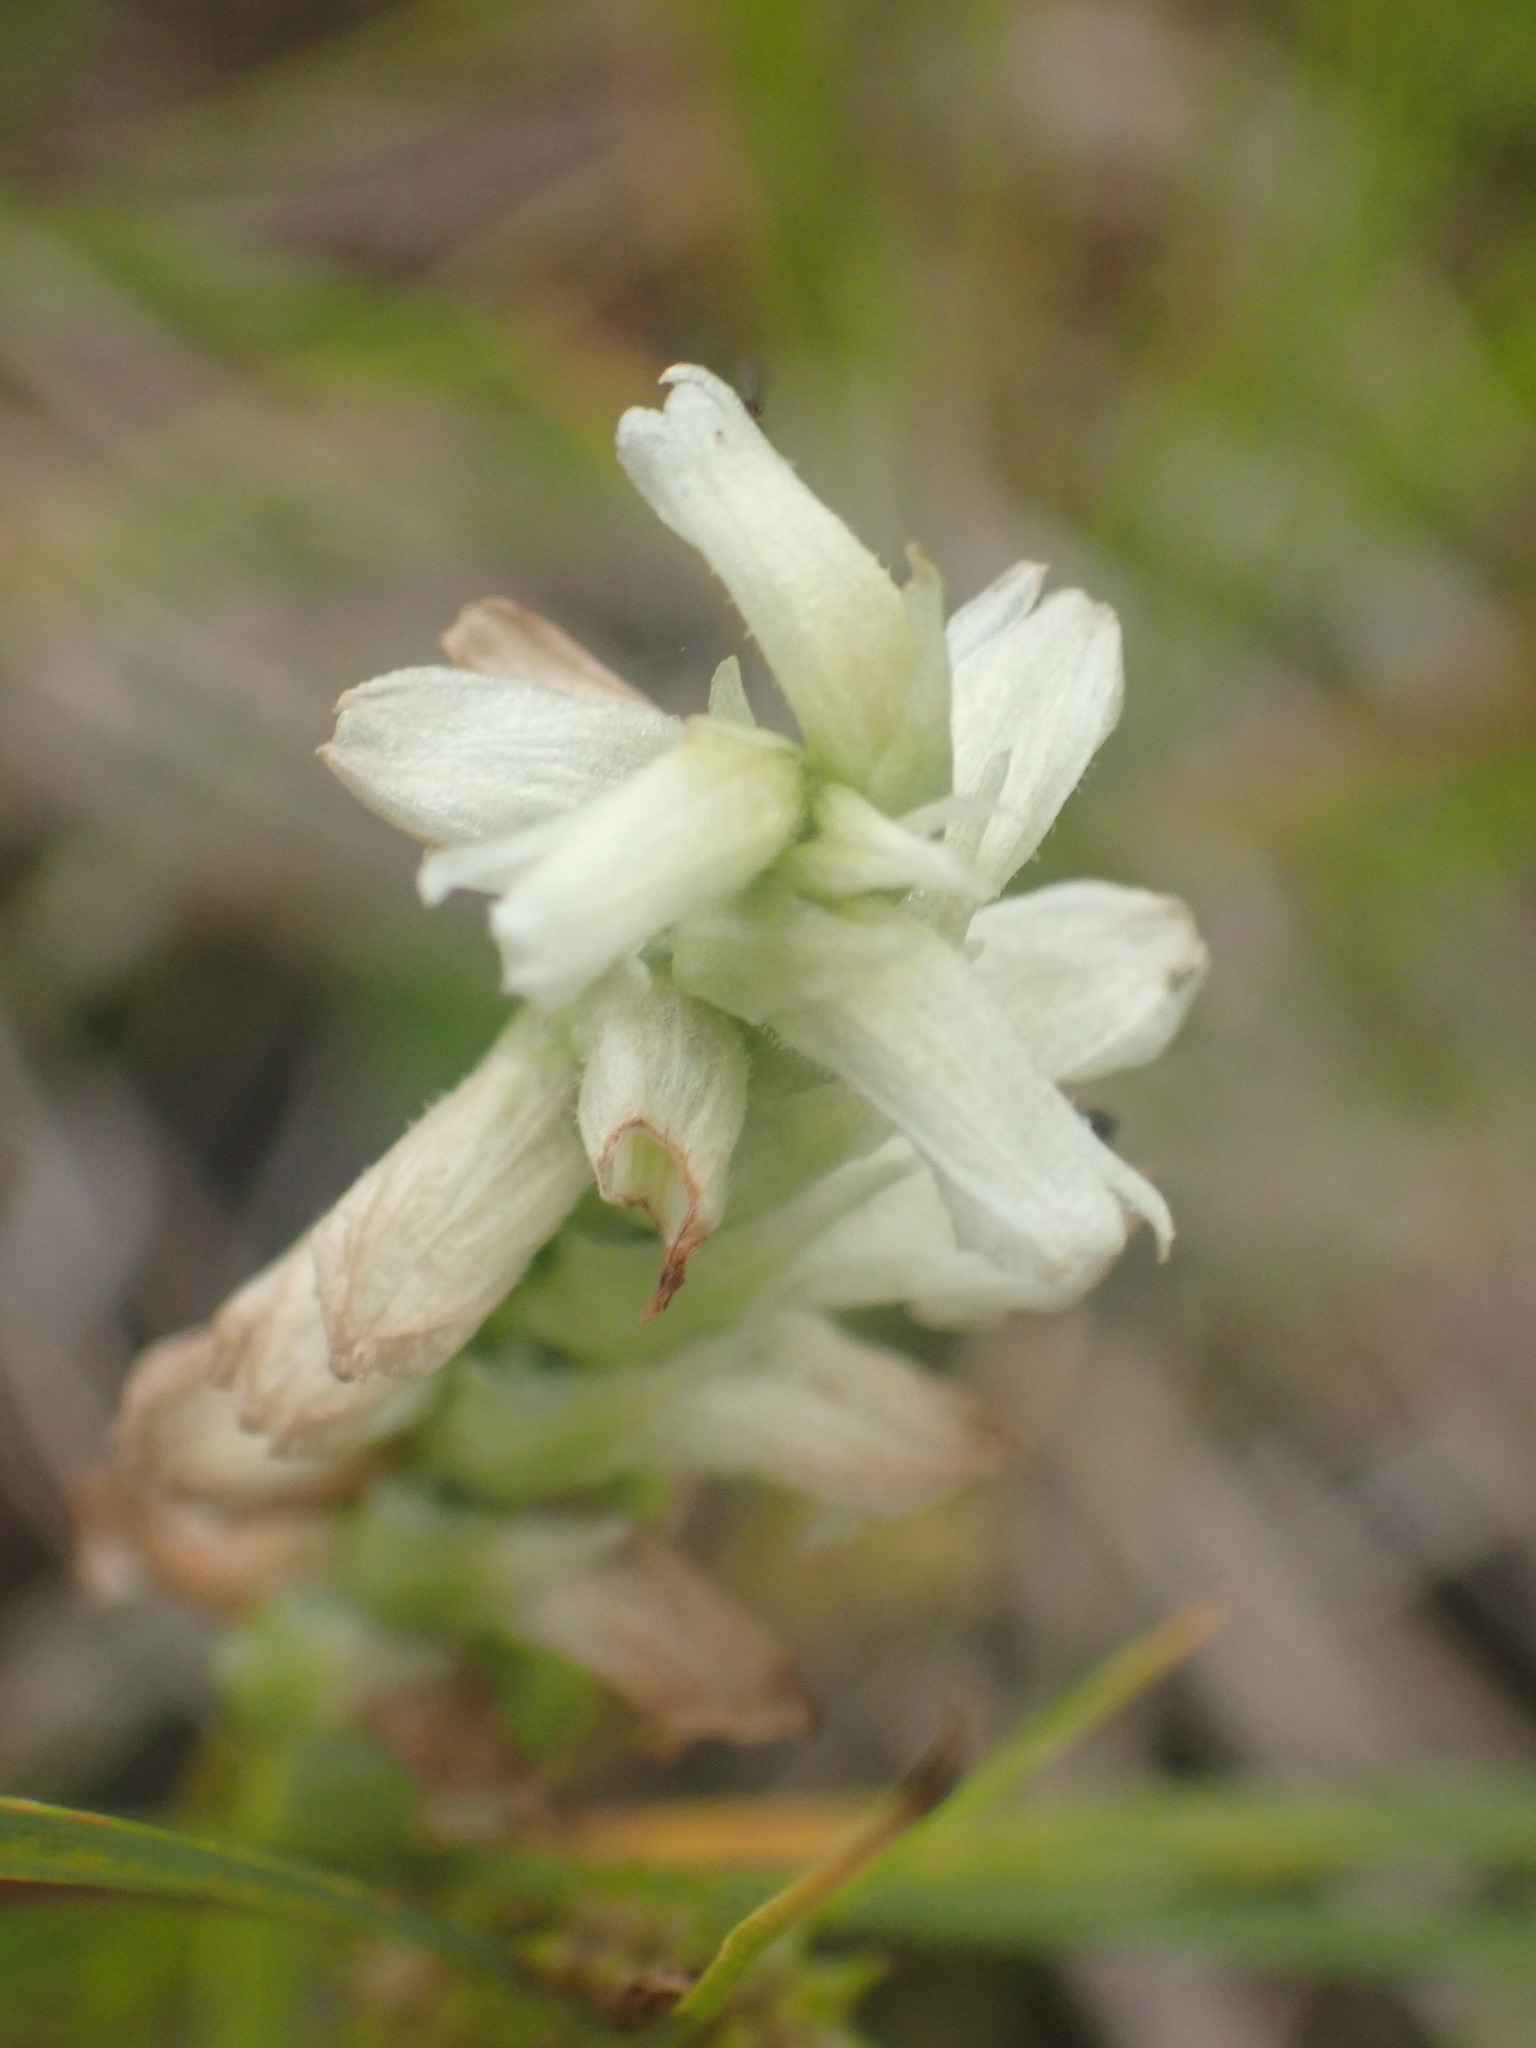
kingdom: Plantae
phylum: Tracheophyta
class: Liliopsida
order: Asparagales
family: Orchidaceae
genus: Spiranthes
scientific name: Spiranthes romanzoffiana
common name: Irish lady's-tresses
